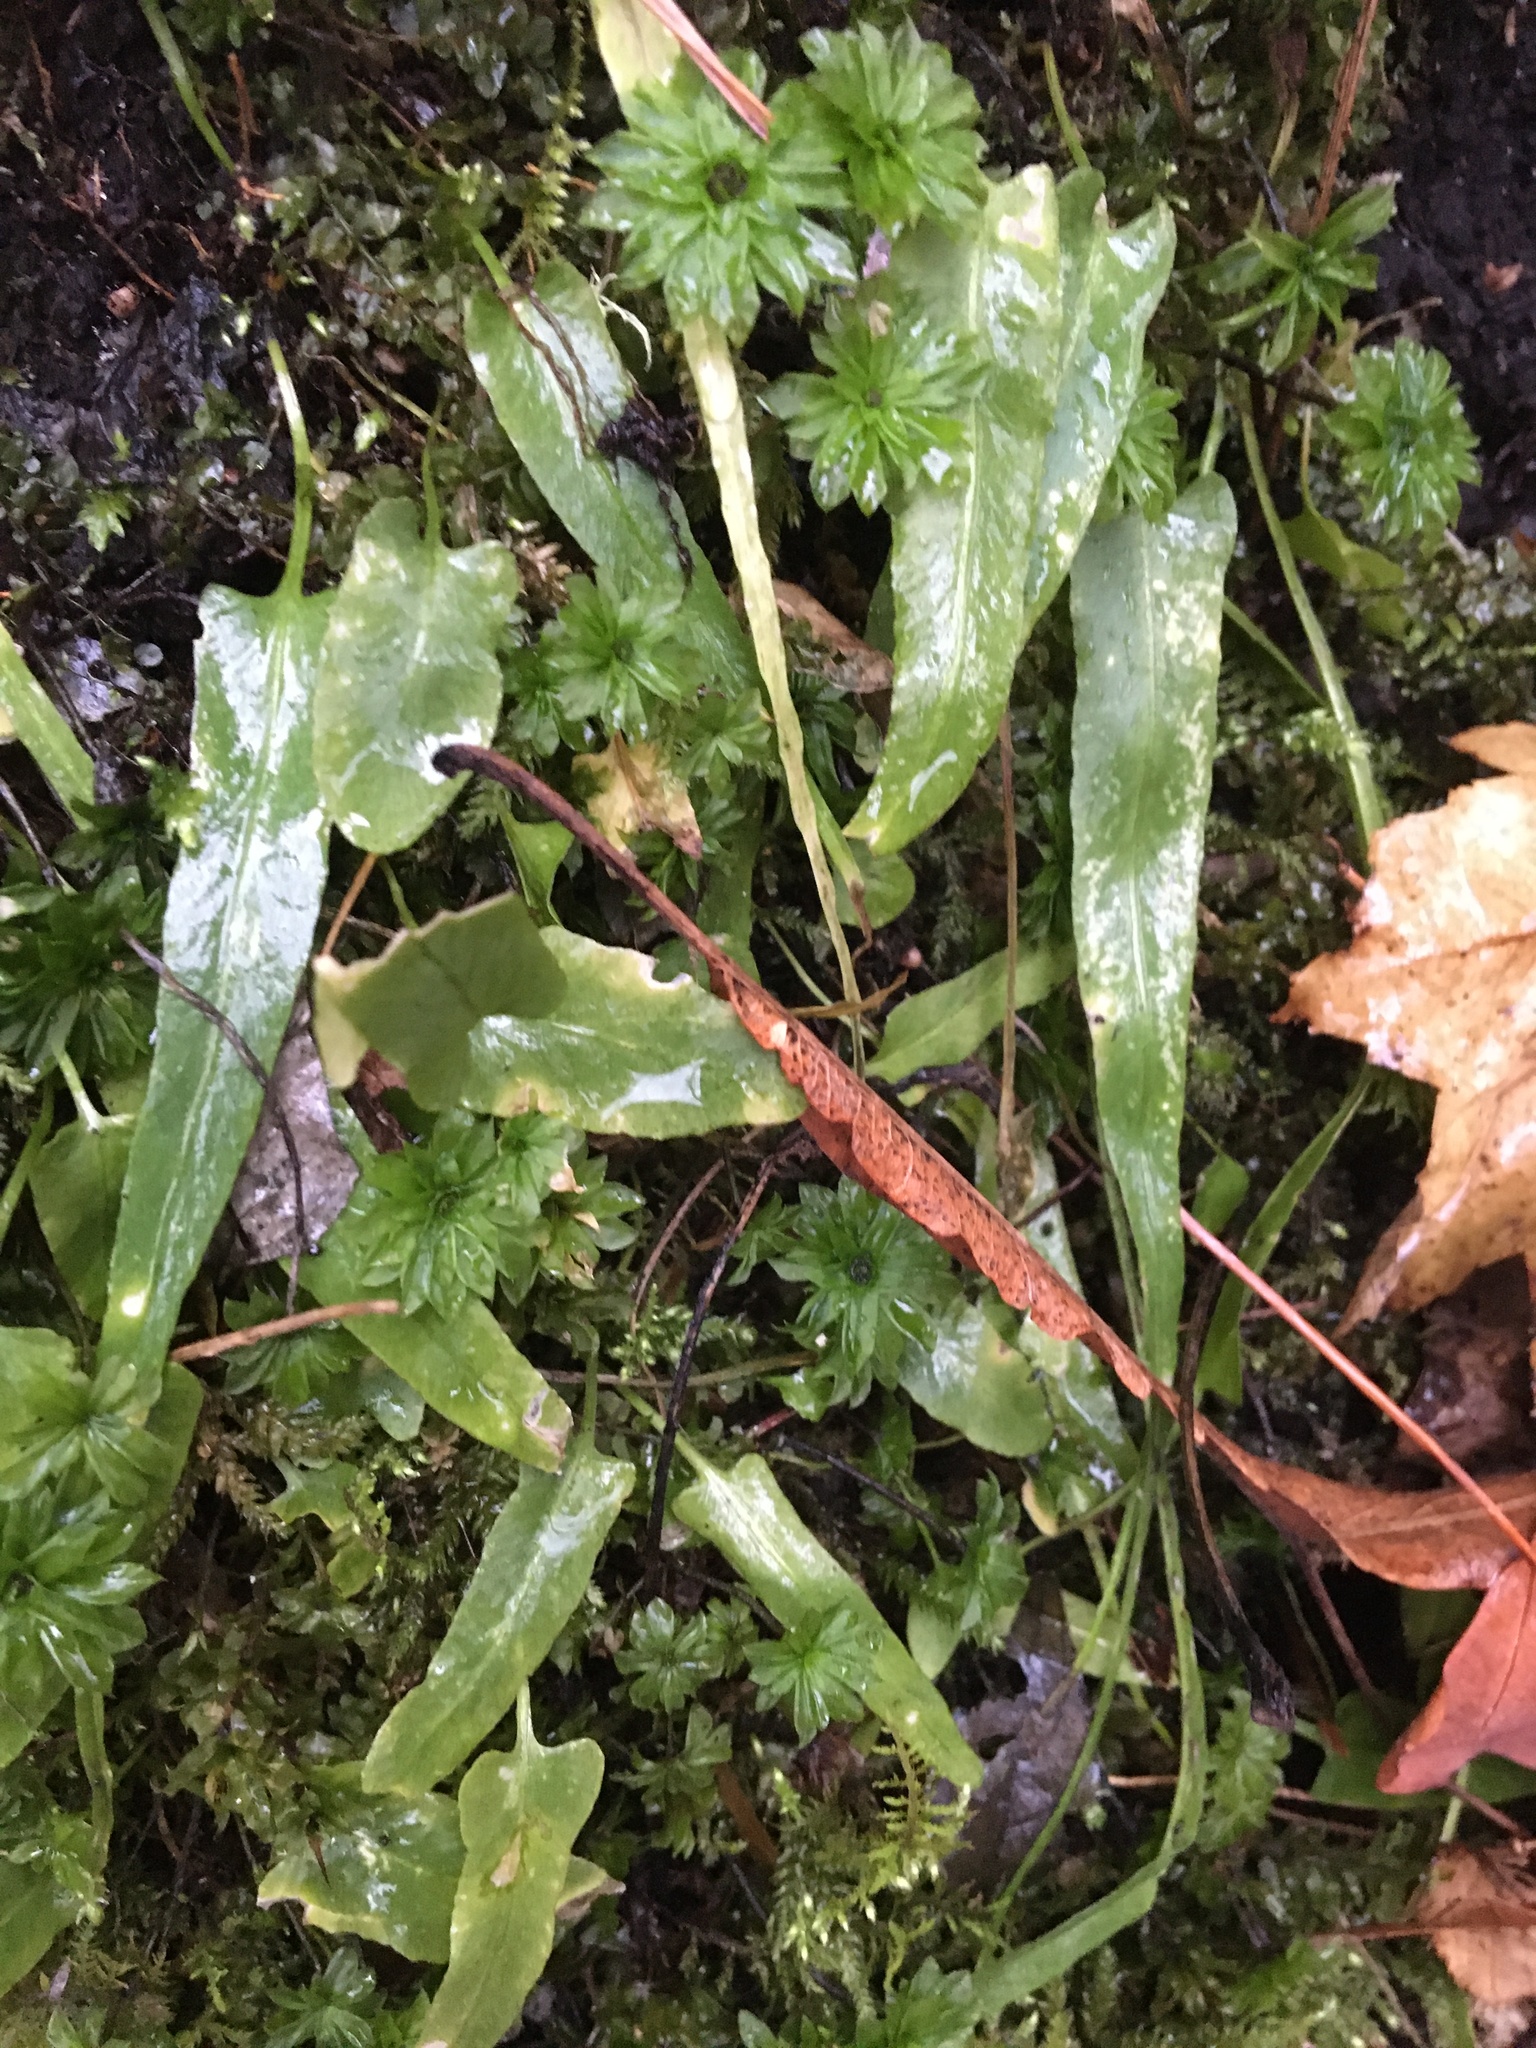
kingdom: Plantae
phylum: Tracheophyta
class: Polypodiopsida
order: Polypodiales
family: Aspleniaceae
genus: Asplenium
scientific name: Asplenium rhizophyllum
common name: Walking fern
